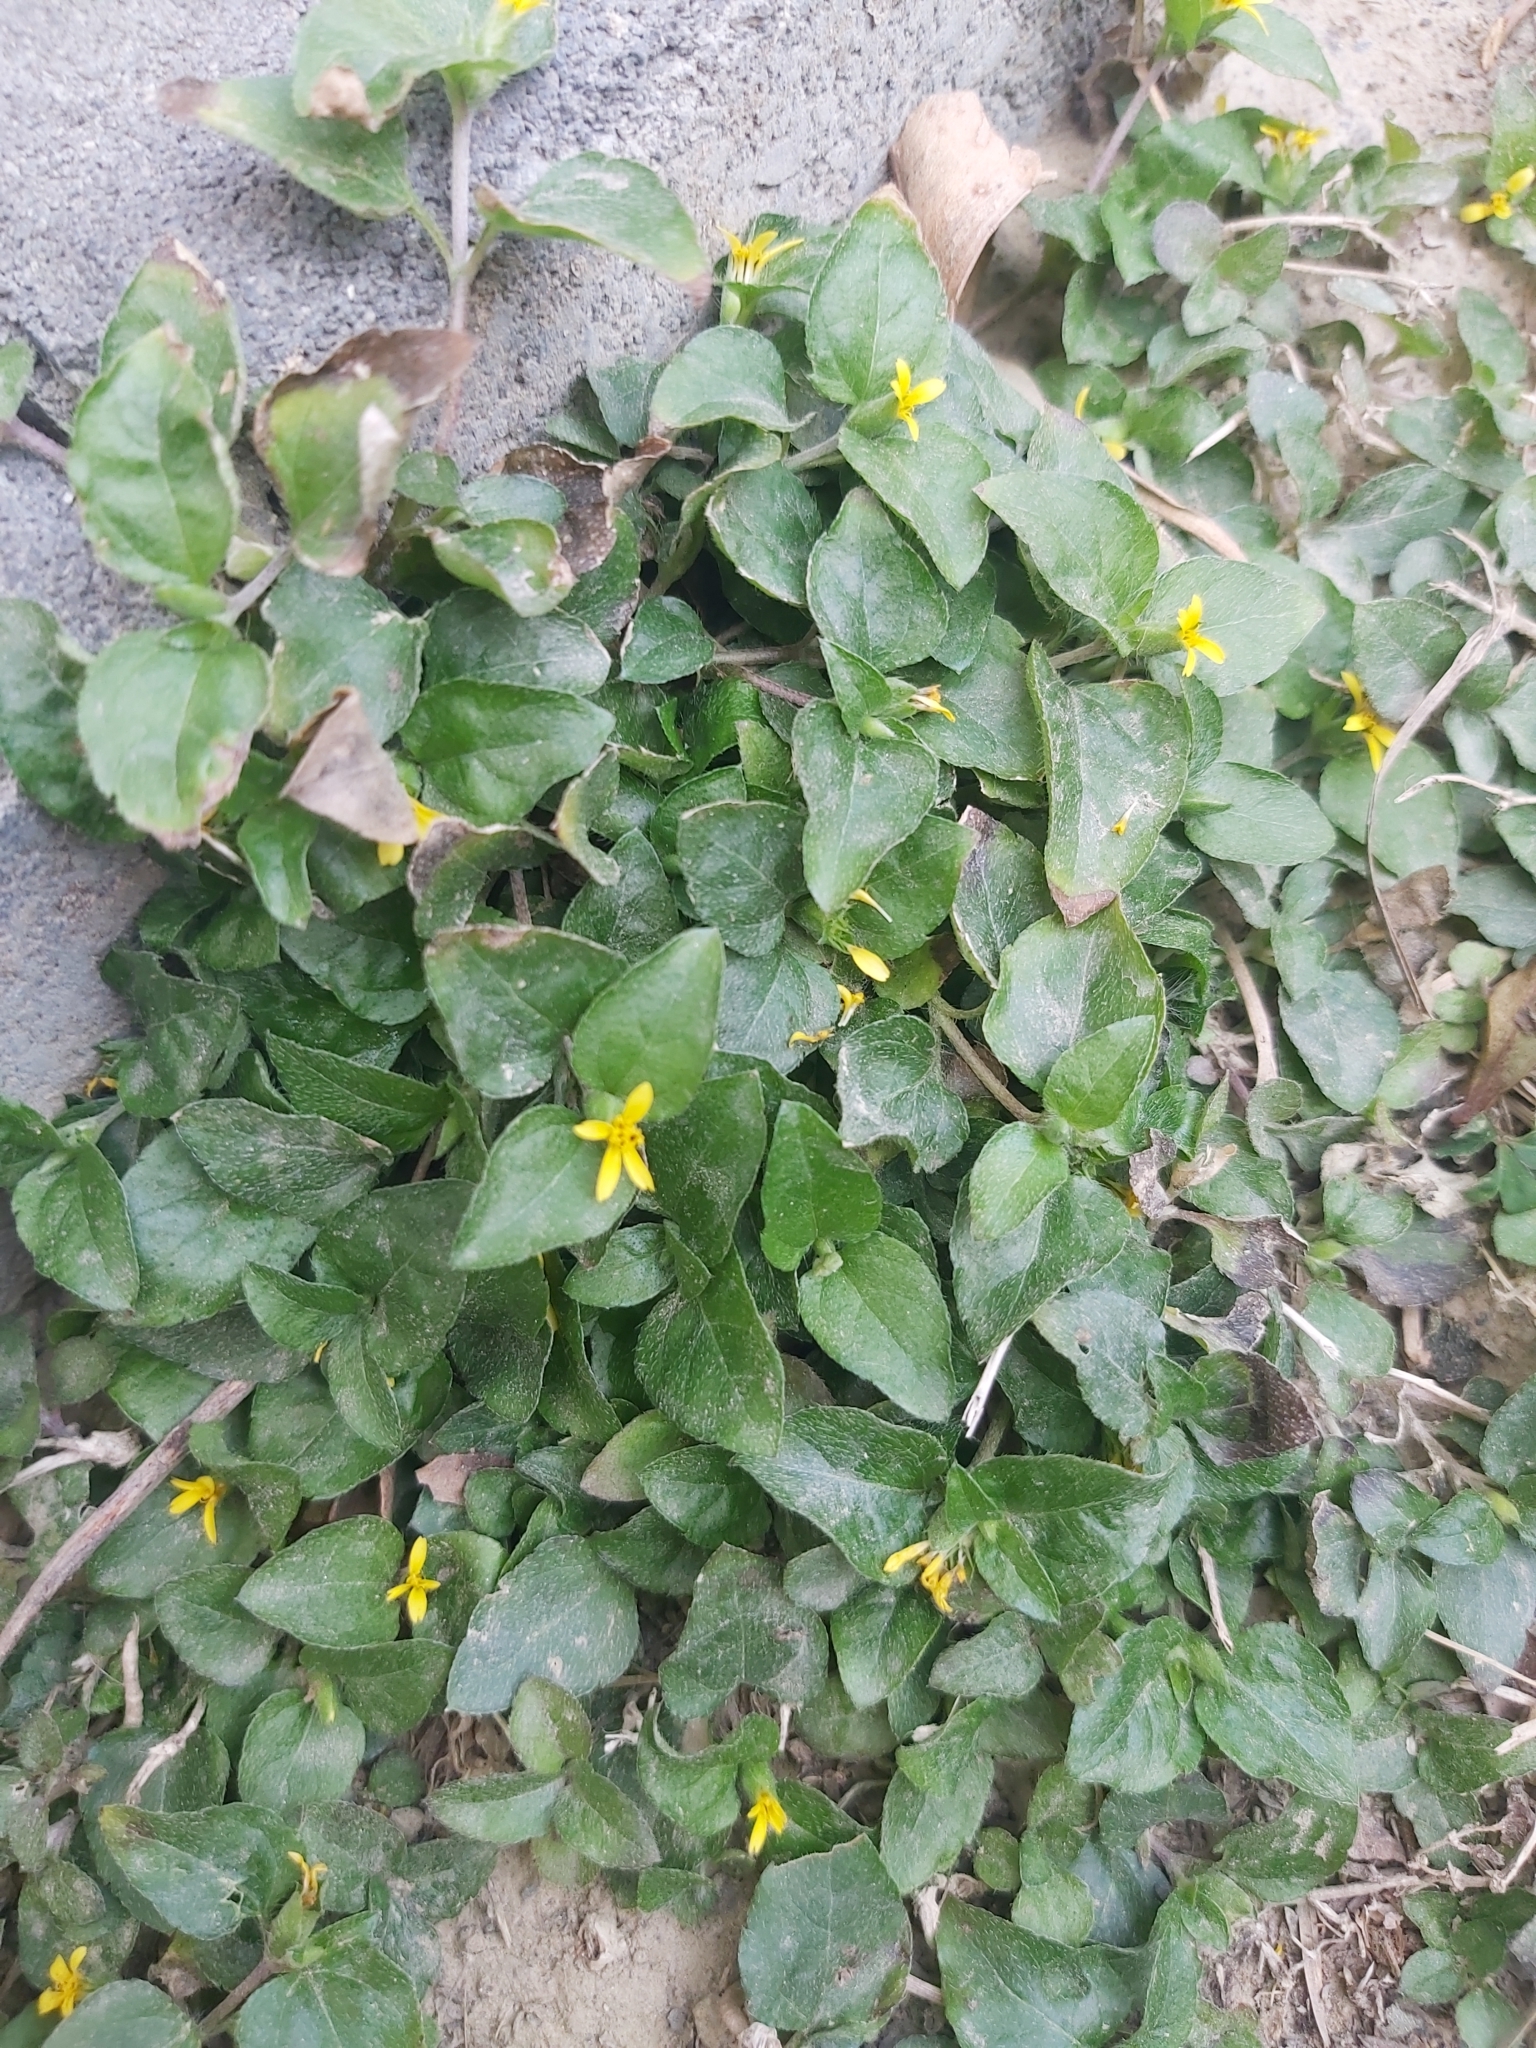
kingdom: Plantae
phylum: Tracheophyta
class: Magnoliopsida
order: Asterales
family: Asteraceae
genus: Calyptocarpus
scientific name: Calyptocarpus vialis
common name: Straggler daisy
